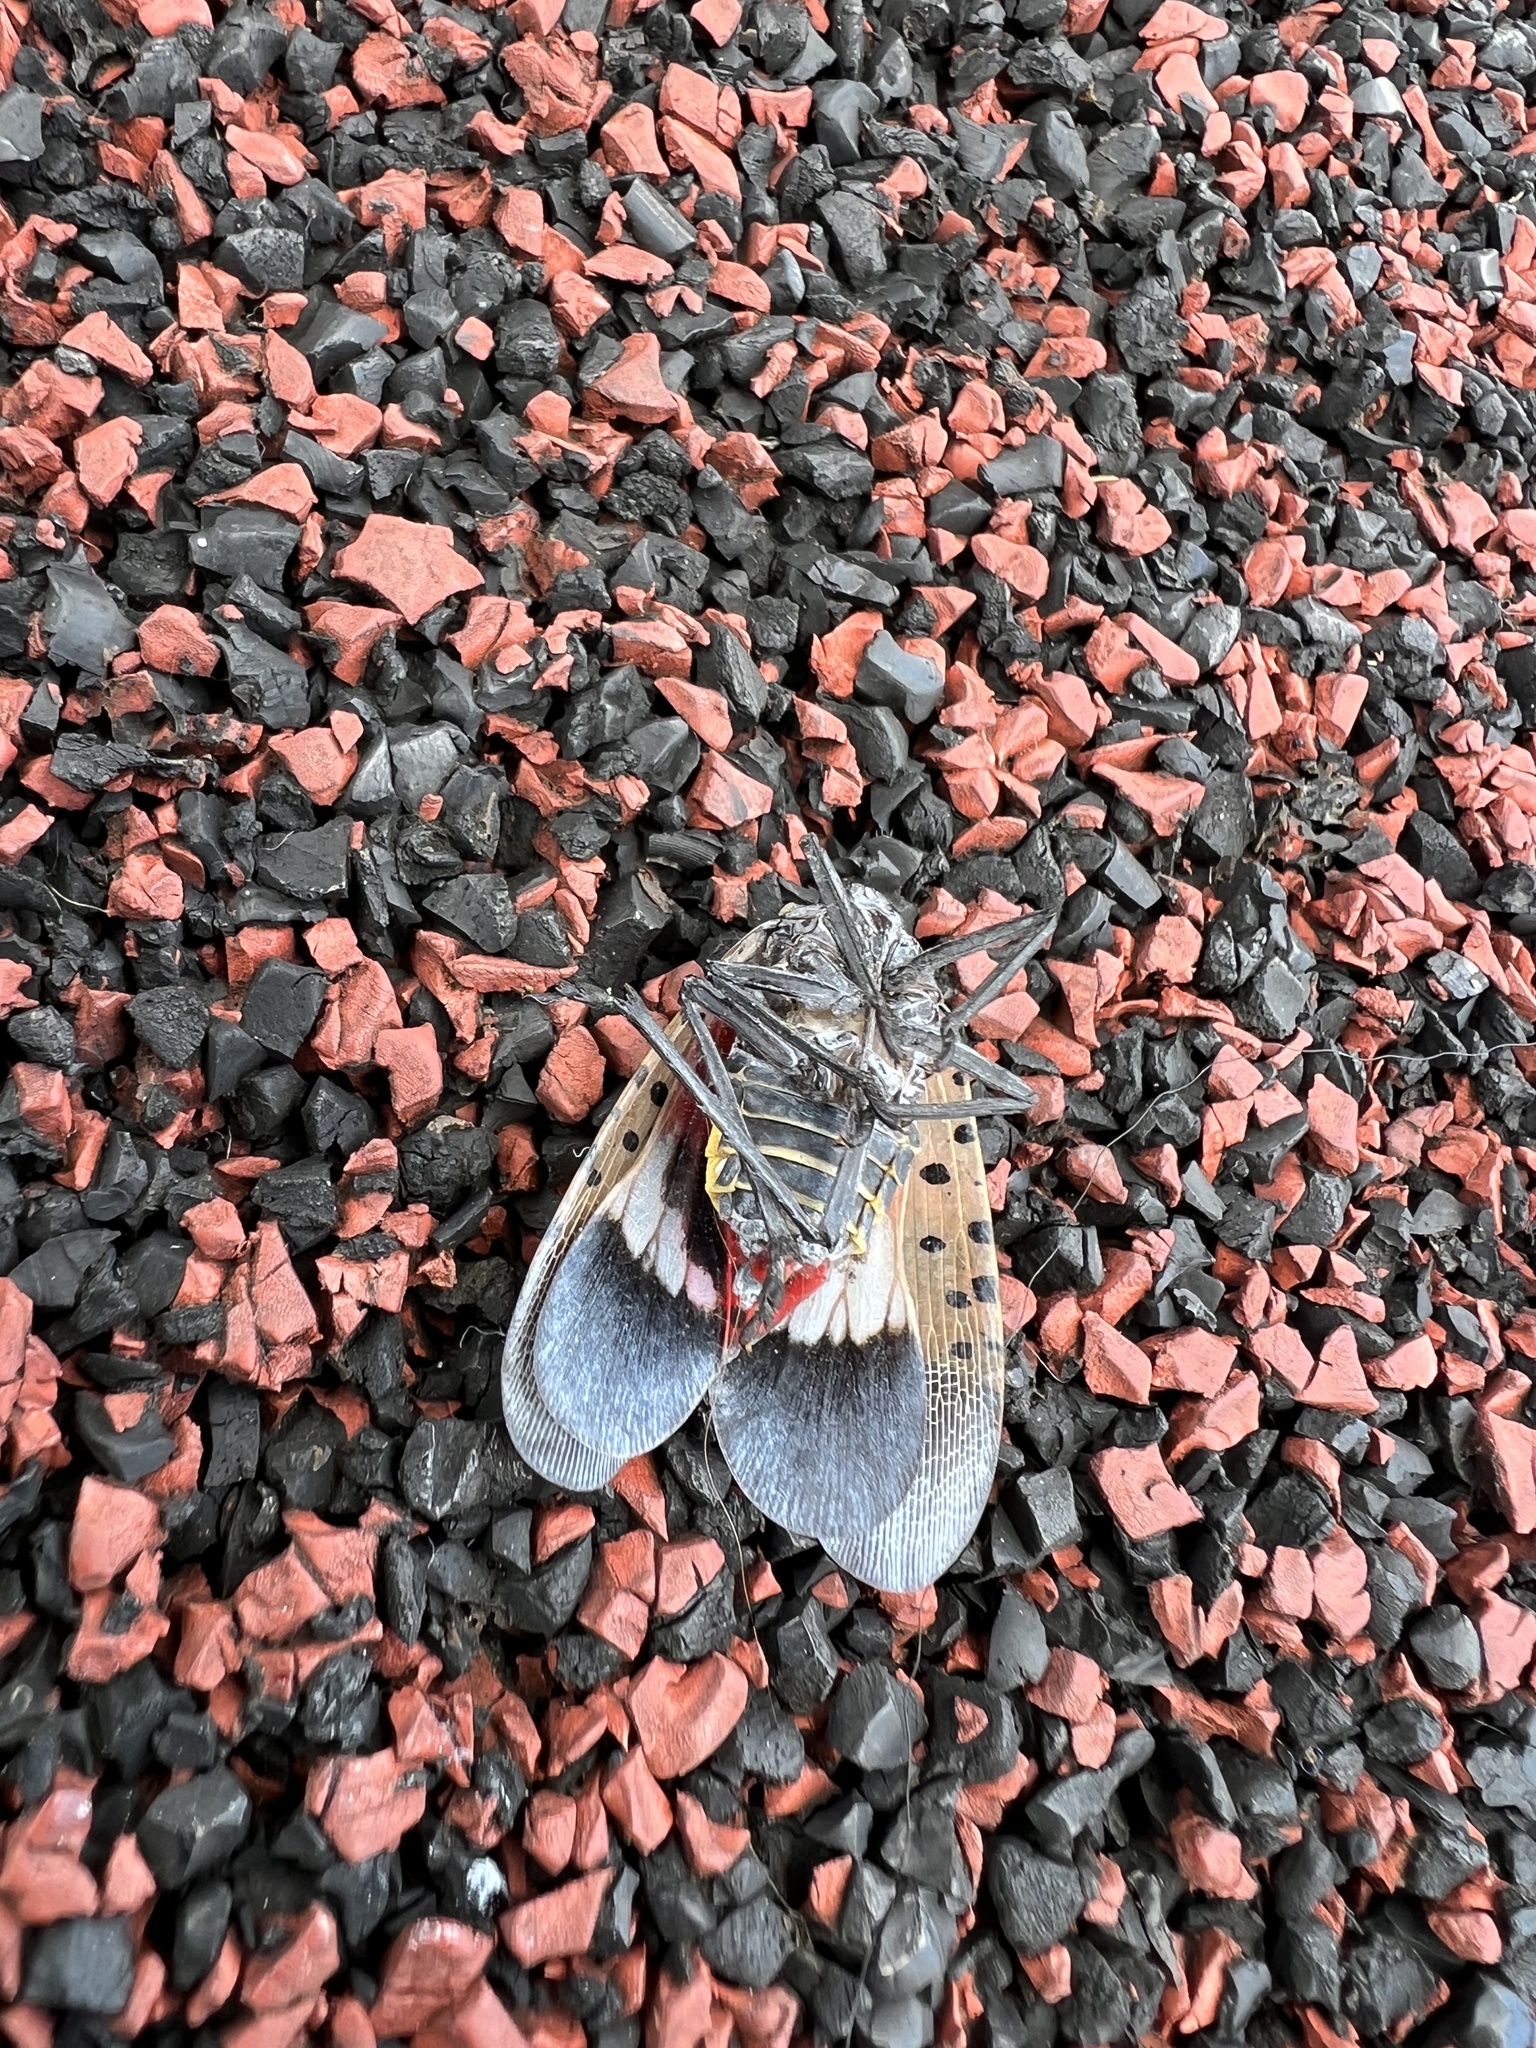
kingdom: Animalia
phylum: Arthropoda
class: Insecta
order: Hemiptera
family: Fulgoridae
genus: Lycorma
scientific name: Lycorma delicatula
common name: Spotted lanternfly
